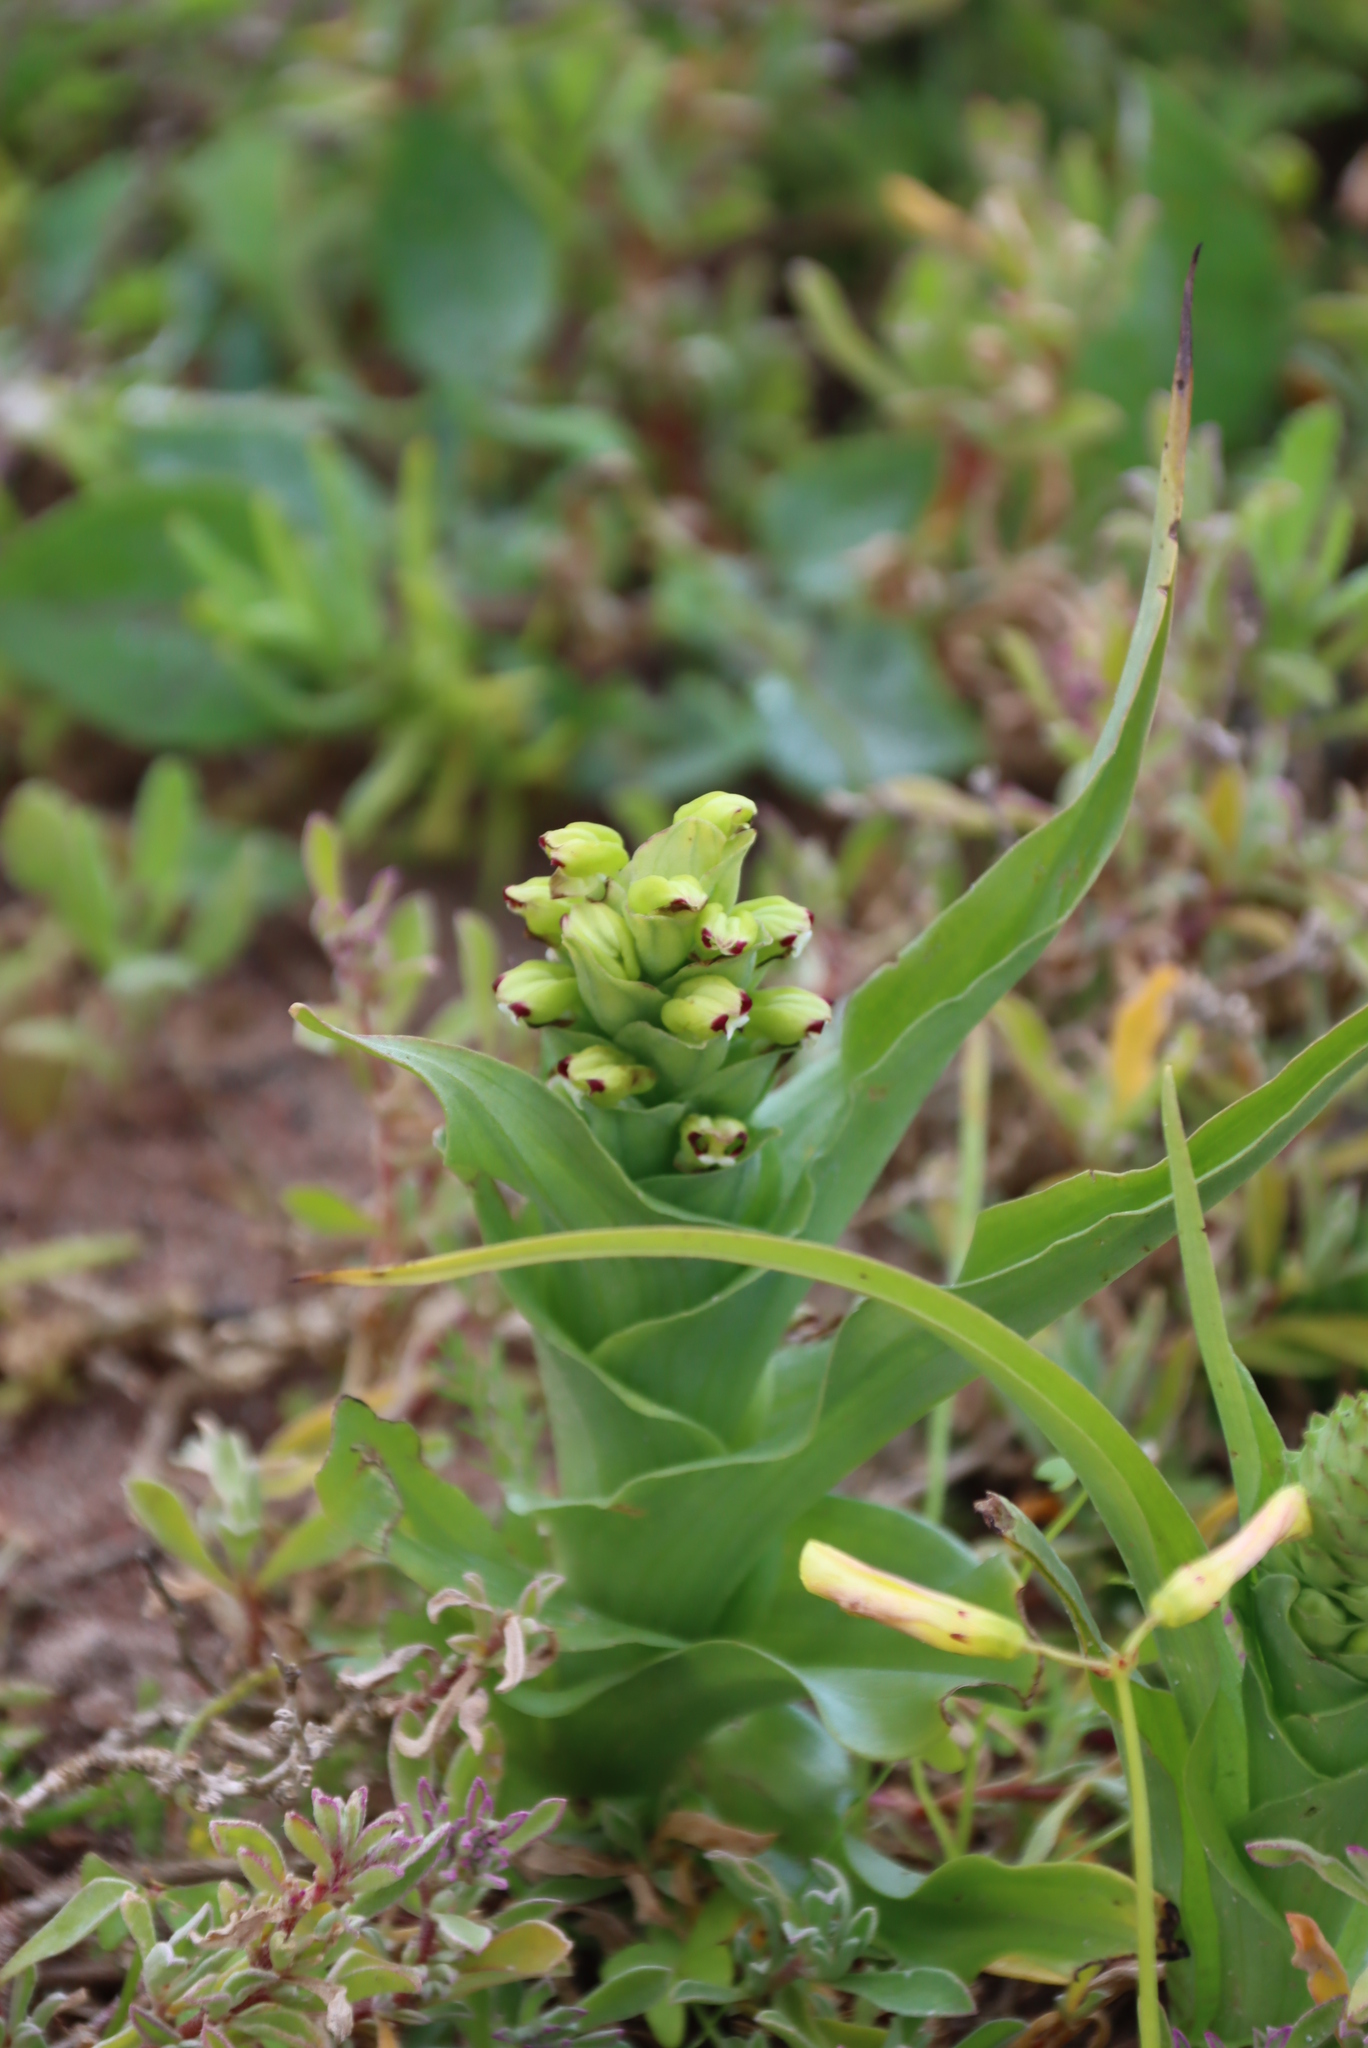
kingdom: Plantae
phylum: Tracheophyta
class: Liliopsida
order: Asparagales
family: Orchidaceae
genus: Corycium
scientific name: Corycium orobanchoides
